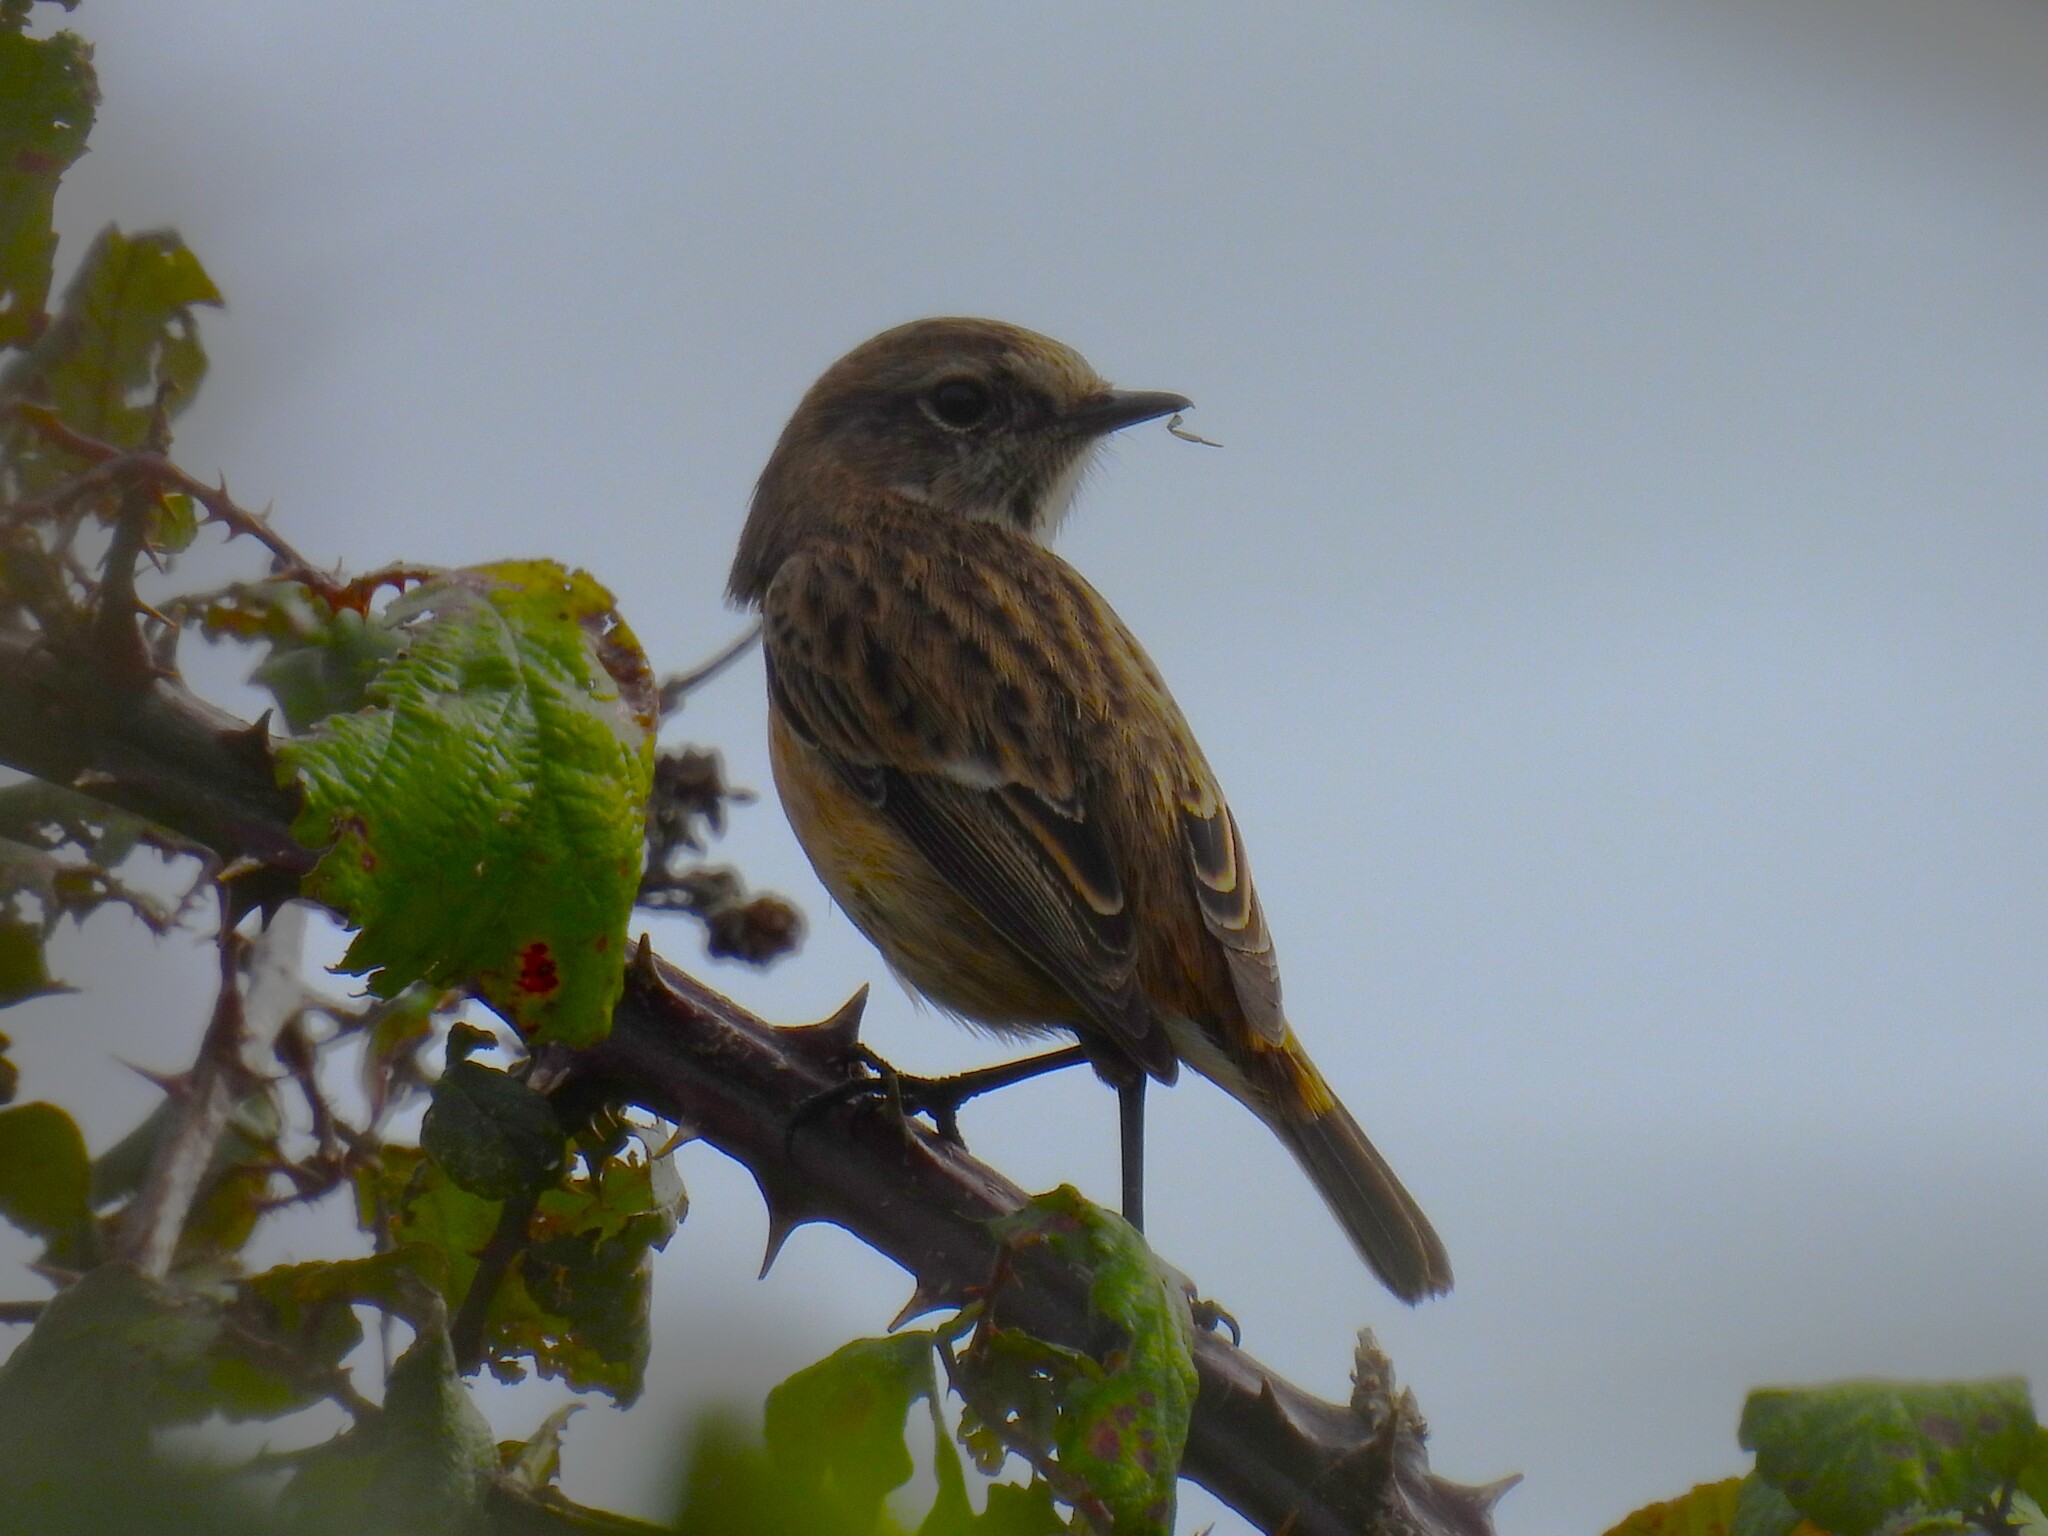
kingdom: Animalia
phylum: Chordata
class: Aves
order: Passeriformes
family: Muscicapidae
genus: Saxicola
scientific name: Saxicola rubicola
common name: European stonechat
